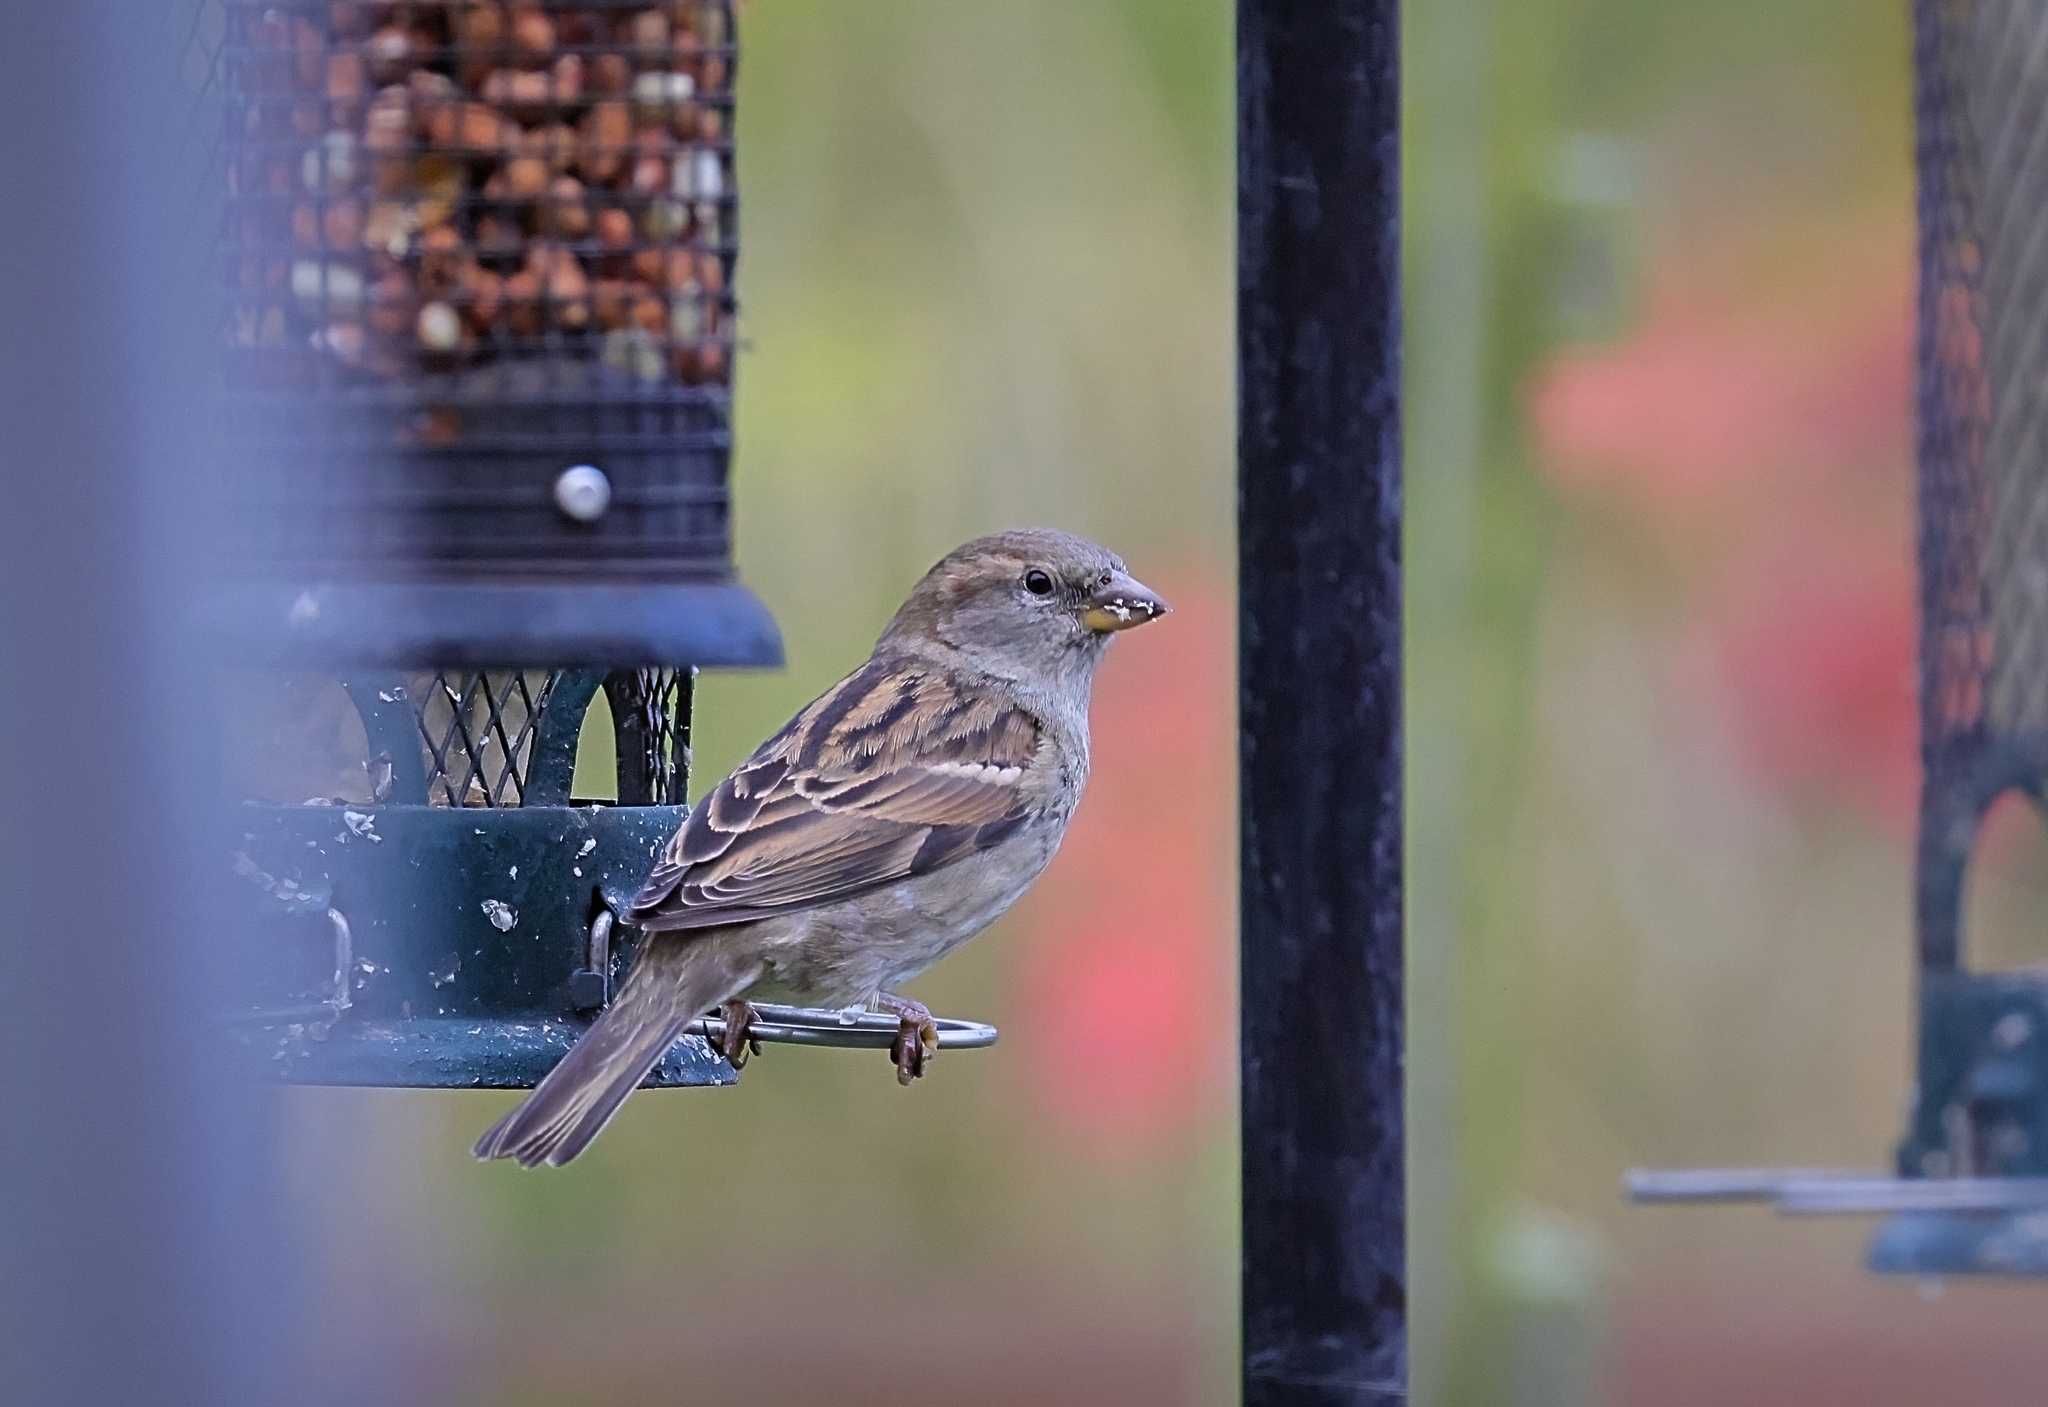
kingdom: Animalia
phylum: Chordata
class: Aves
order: Passeriformes
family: Passeridae
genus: Passer
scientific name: Passer domesticus
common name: House sparrow
